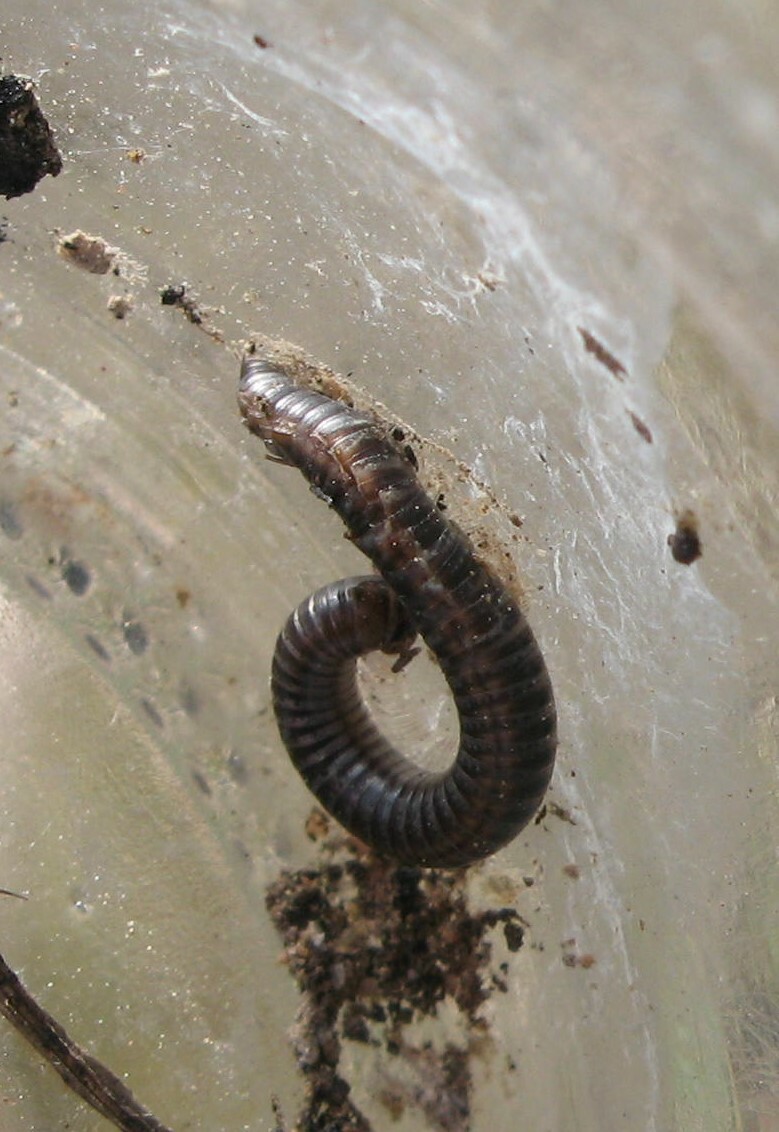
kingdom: Animalia
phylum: Arthropoda
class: Diplopoda
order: Julida
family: Julidae
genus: Ommatoiulus
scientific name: Ommatoiulus sabulosus
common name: Striped millipede
